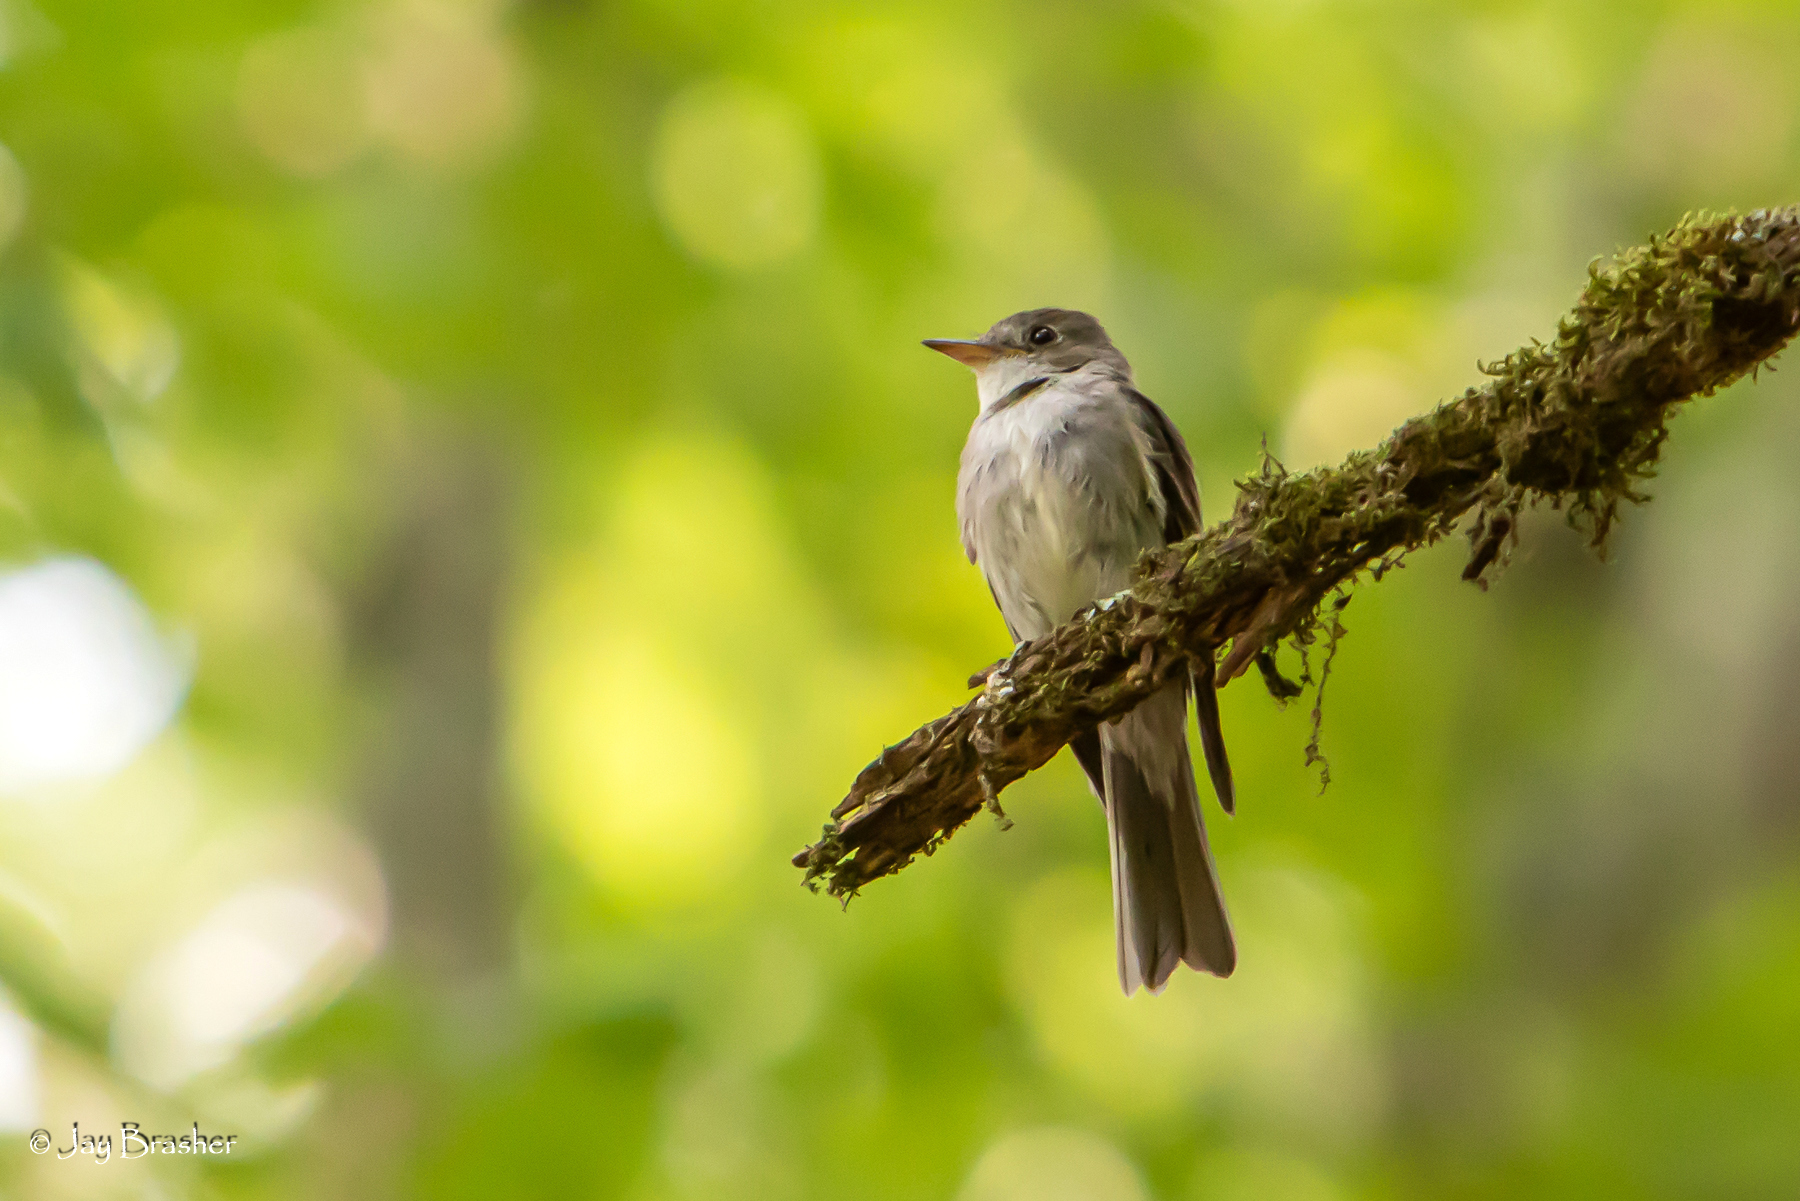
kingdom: Animalia
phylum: Chordata
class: Aves
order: Passeriformes
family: Tyrannidae
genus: Contopus
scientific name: Contopus virens
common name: Eastern wood-pewee
